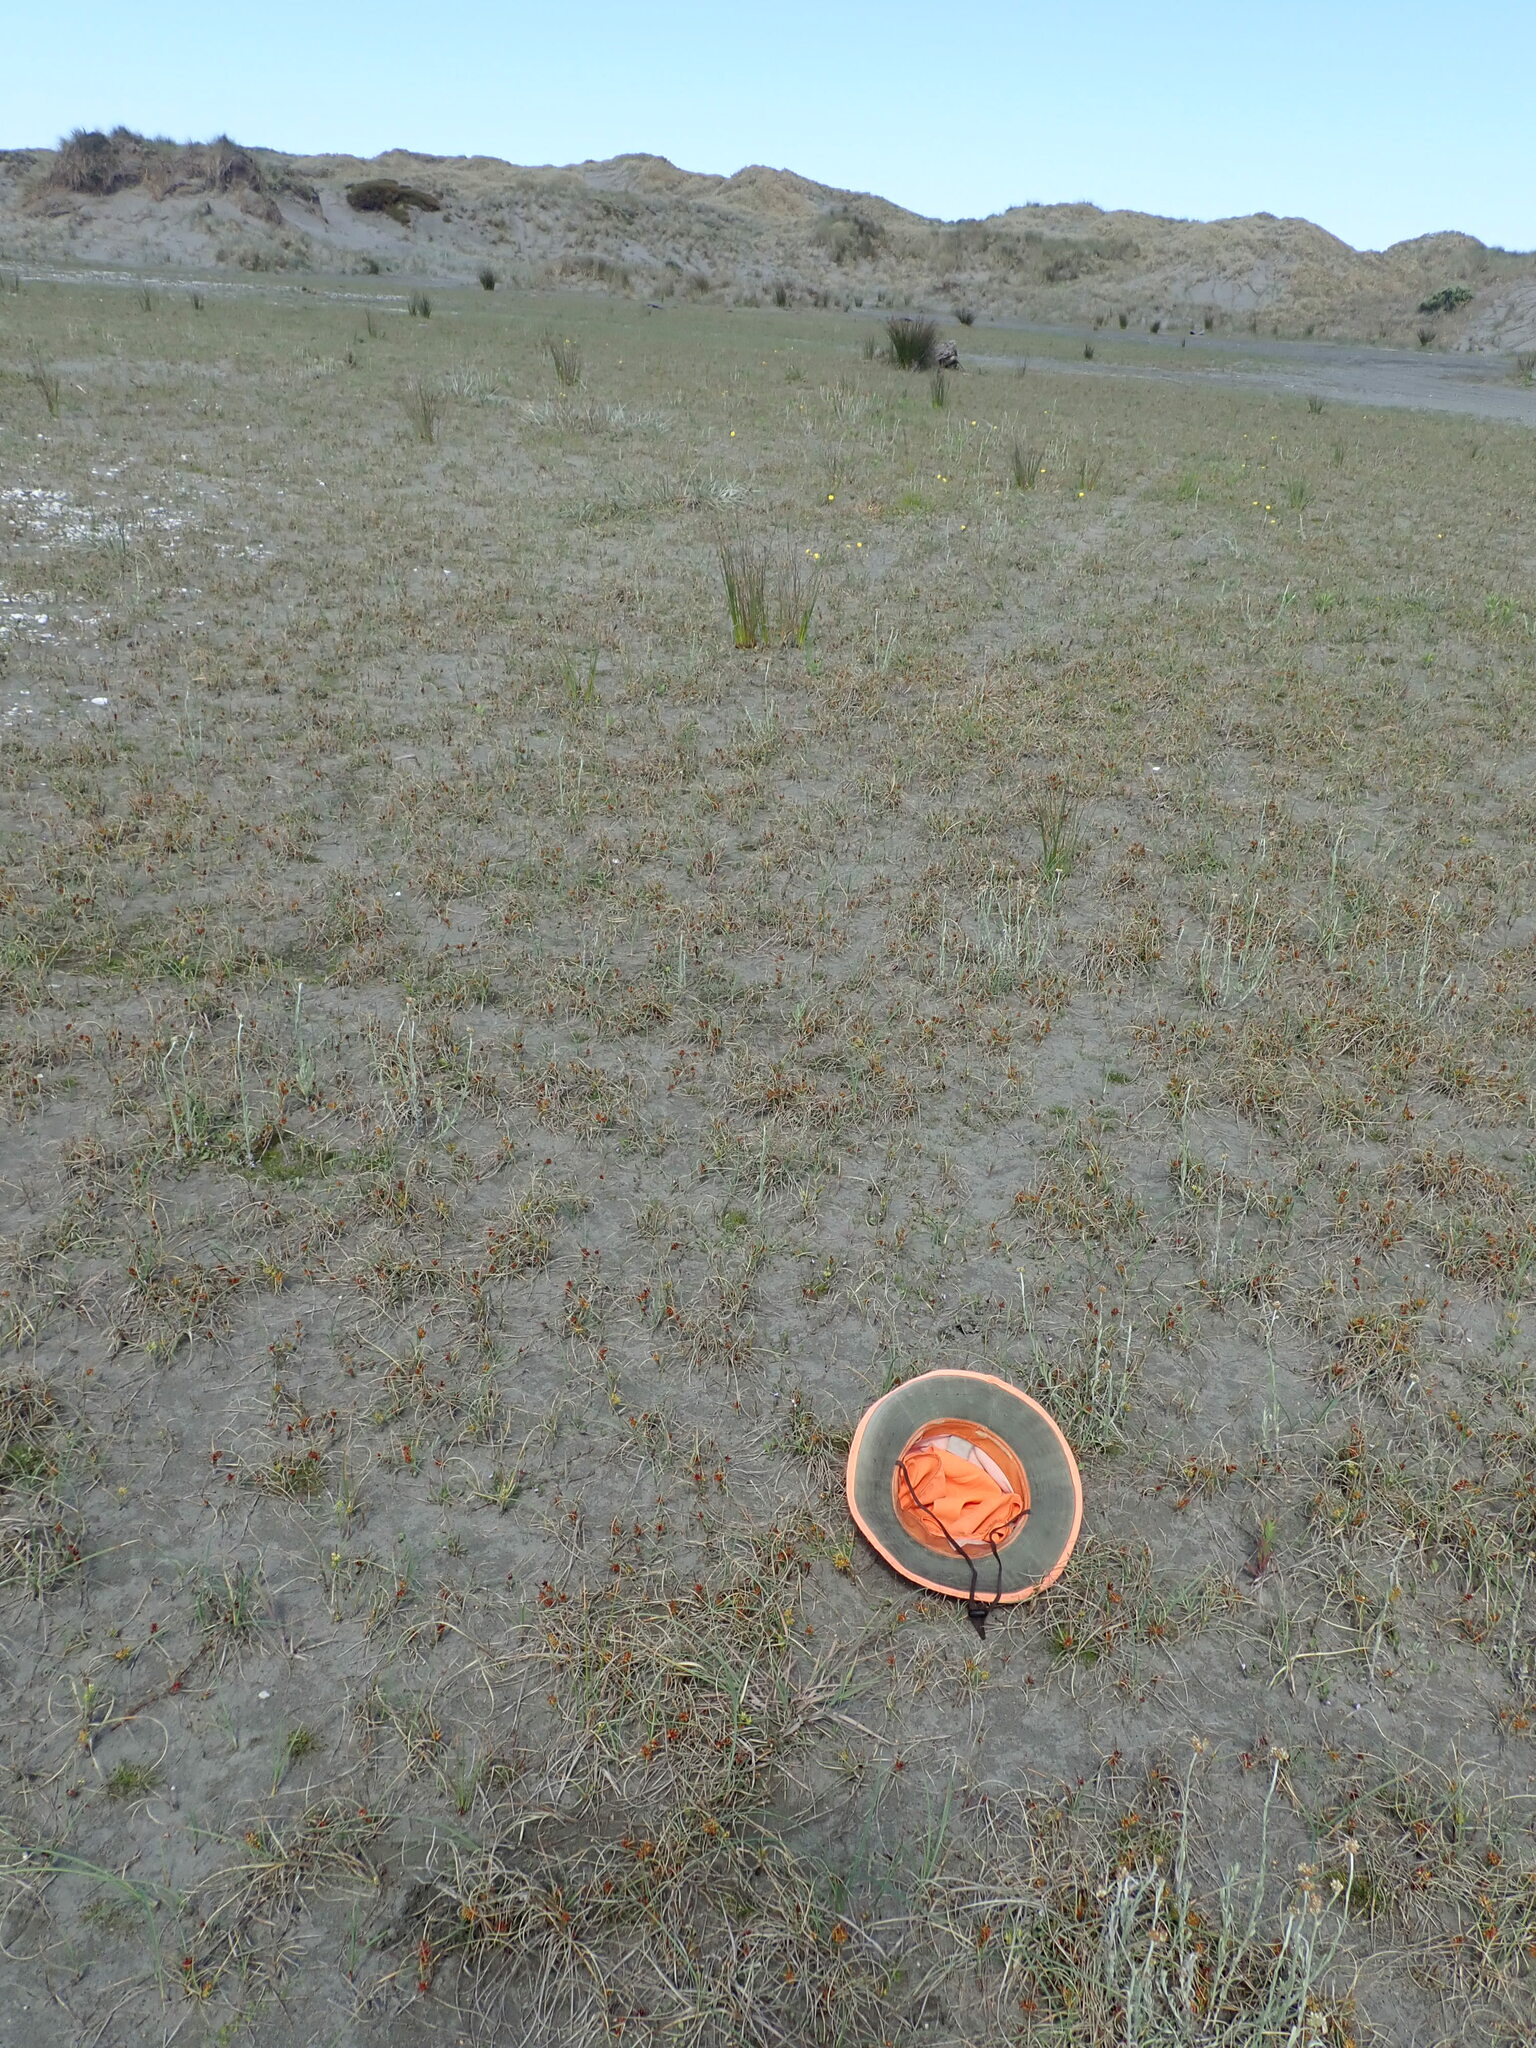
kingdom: Plantae
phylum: Tracheophyta
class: Magnoliopsida
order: Ranunculales
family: Ranunculaceae
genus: Ranunculus
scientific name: Ranunculus acaulis
